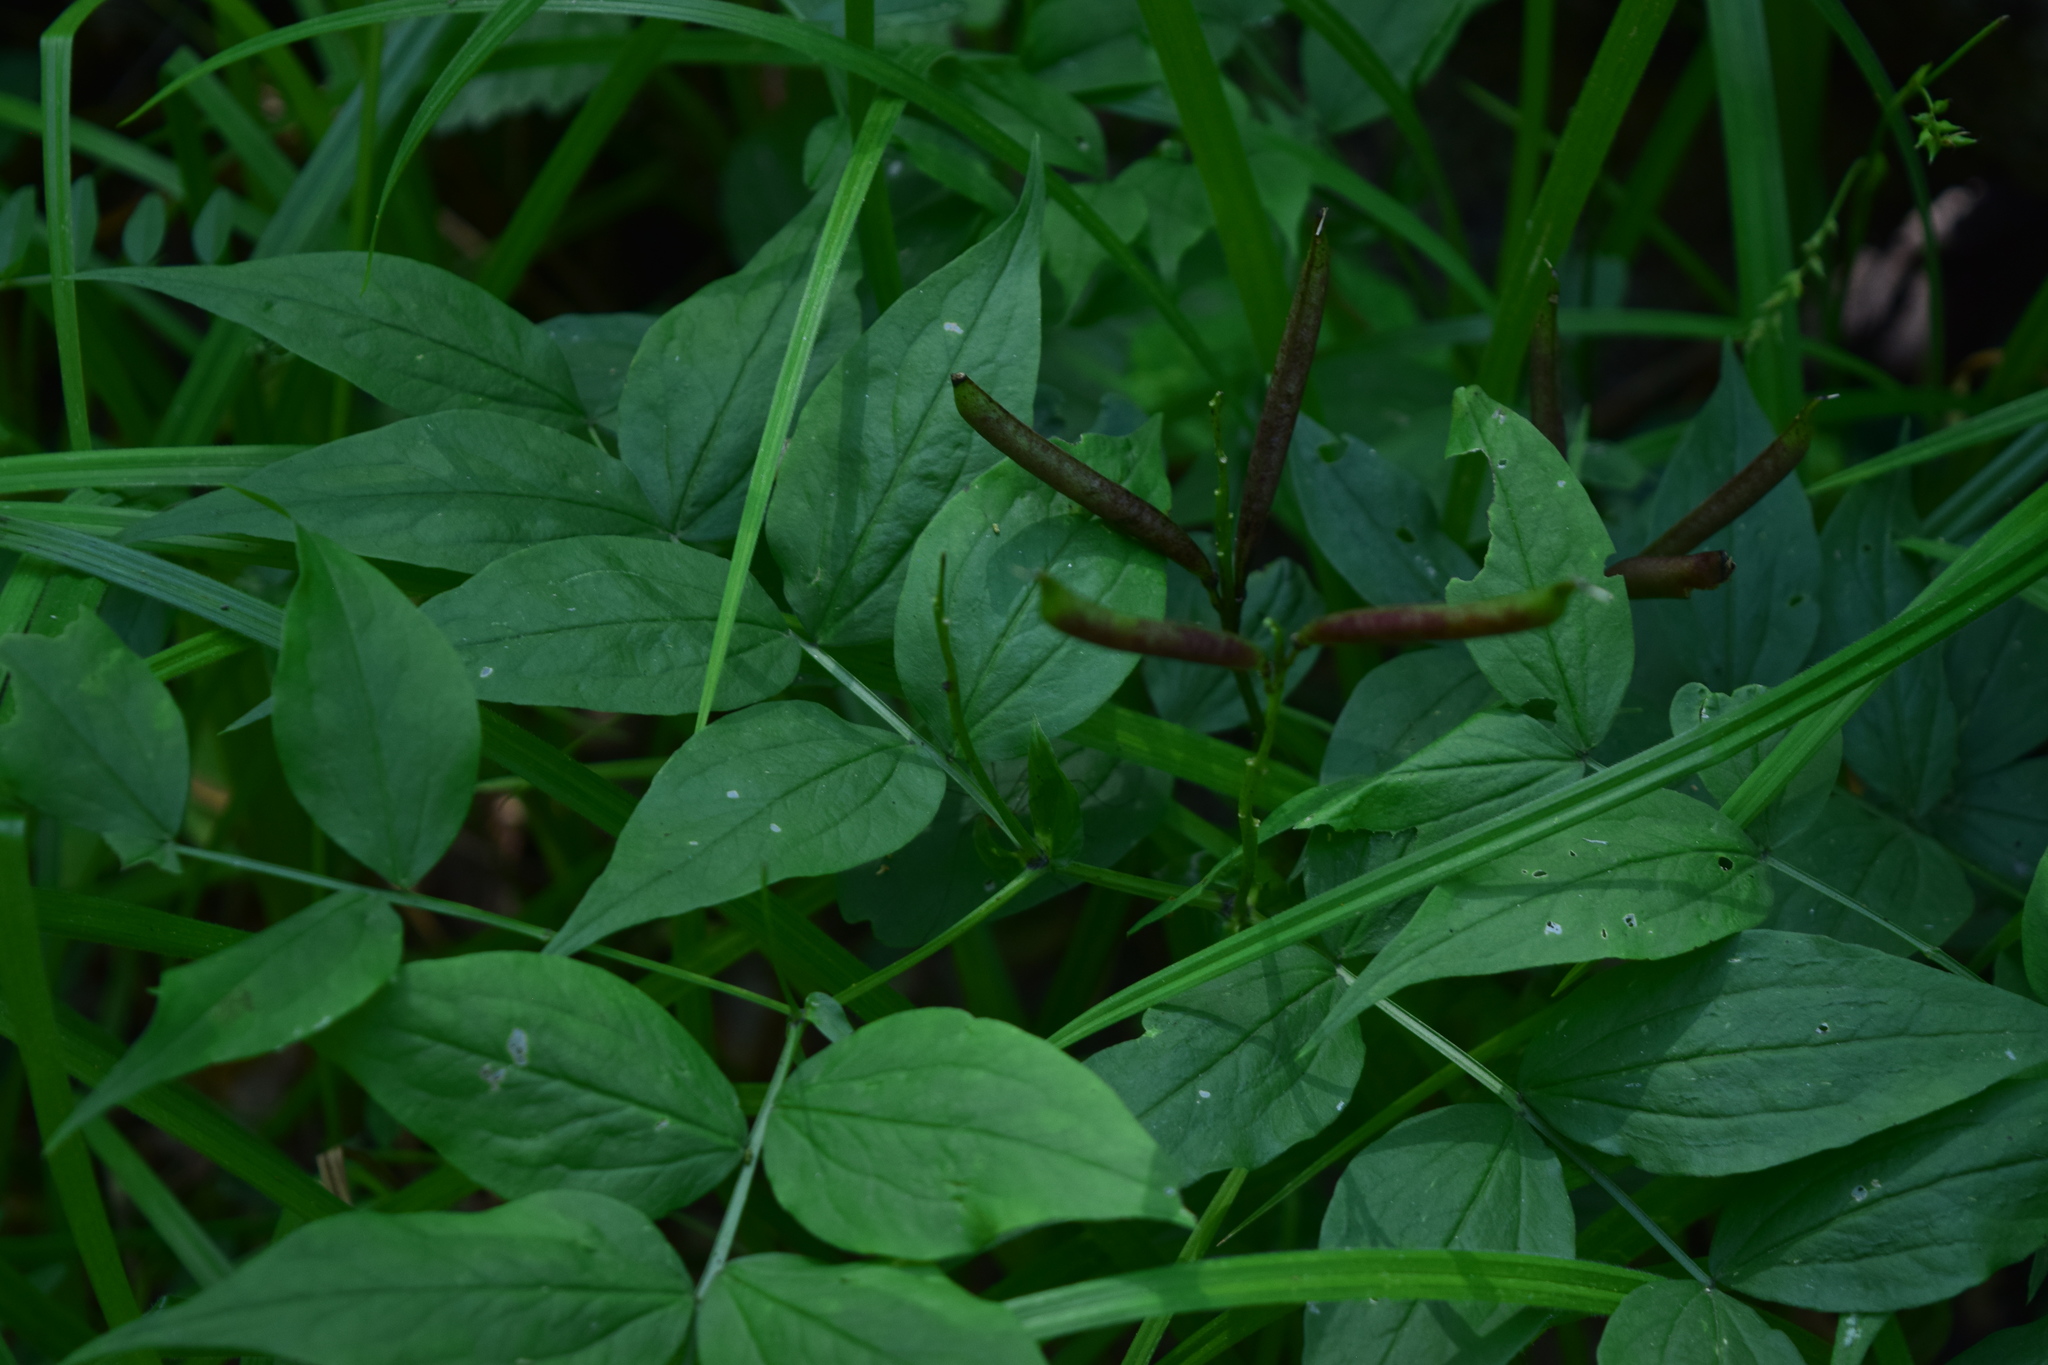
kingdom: Plantae
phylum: Tracheophyta
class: Magnoliopsida
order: Fabales
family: Fabaceae
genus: Lathyrus
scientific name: Lathyrus vernus
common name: Spring pea
